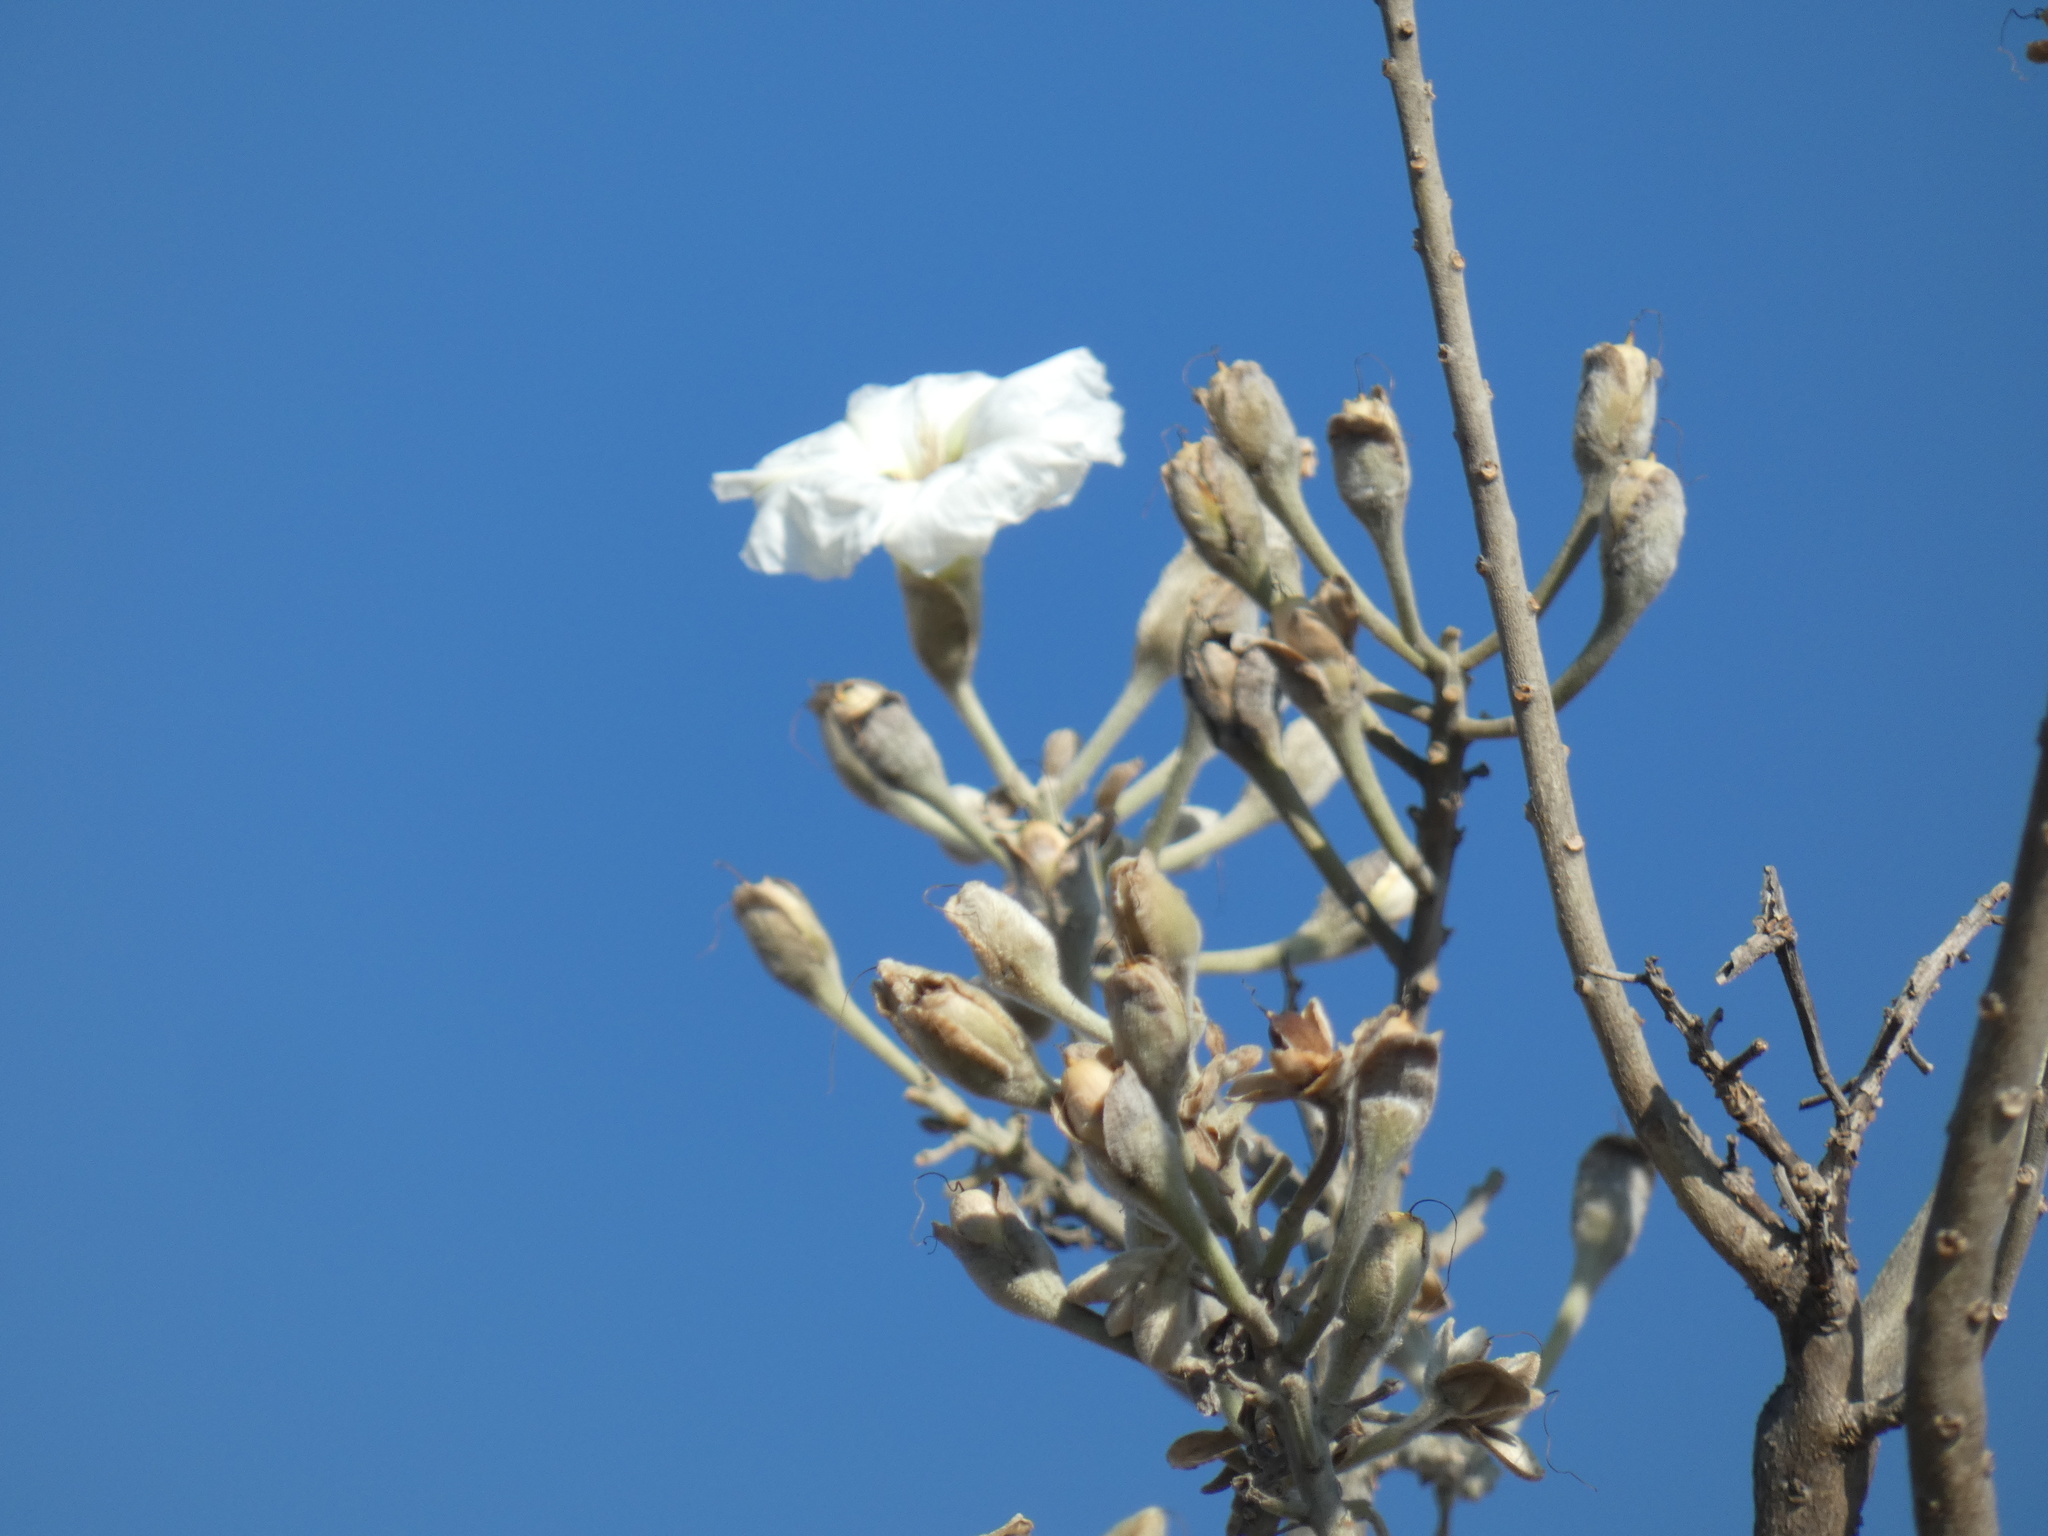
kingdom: Plantae
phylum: Tracheophyta
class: Magnoliopsida
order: Solanales
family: Convolvulaceae
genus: Ipomoea
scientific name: Ipomoea murucoides
